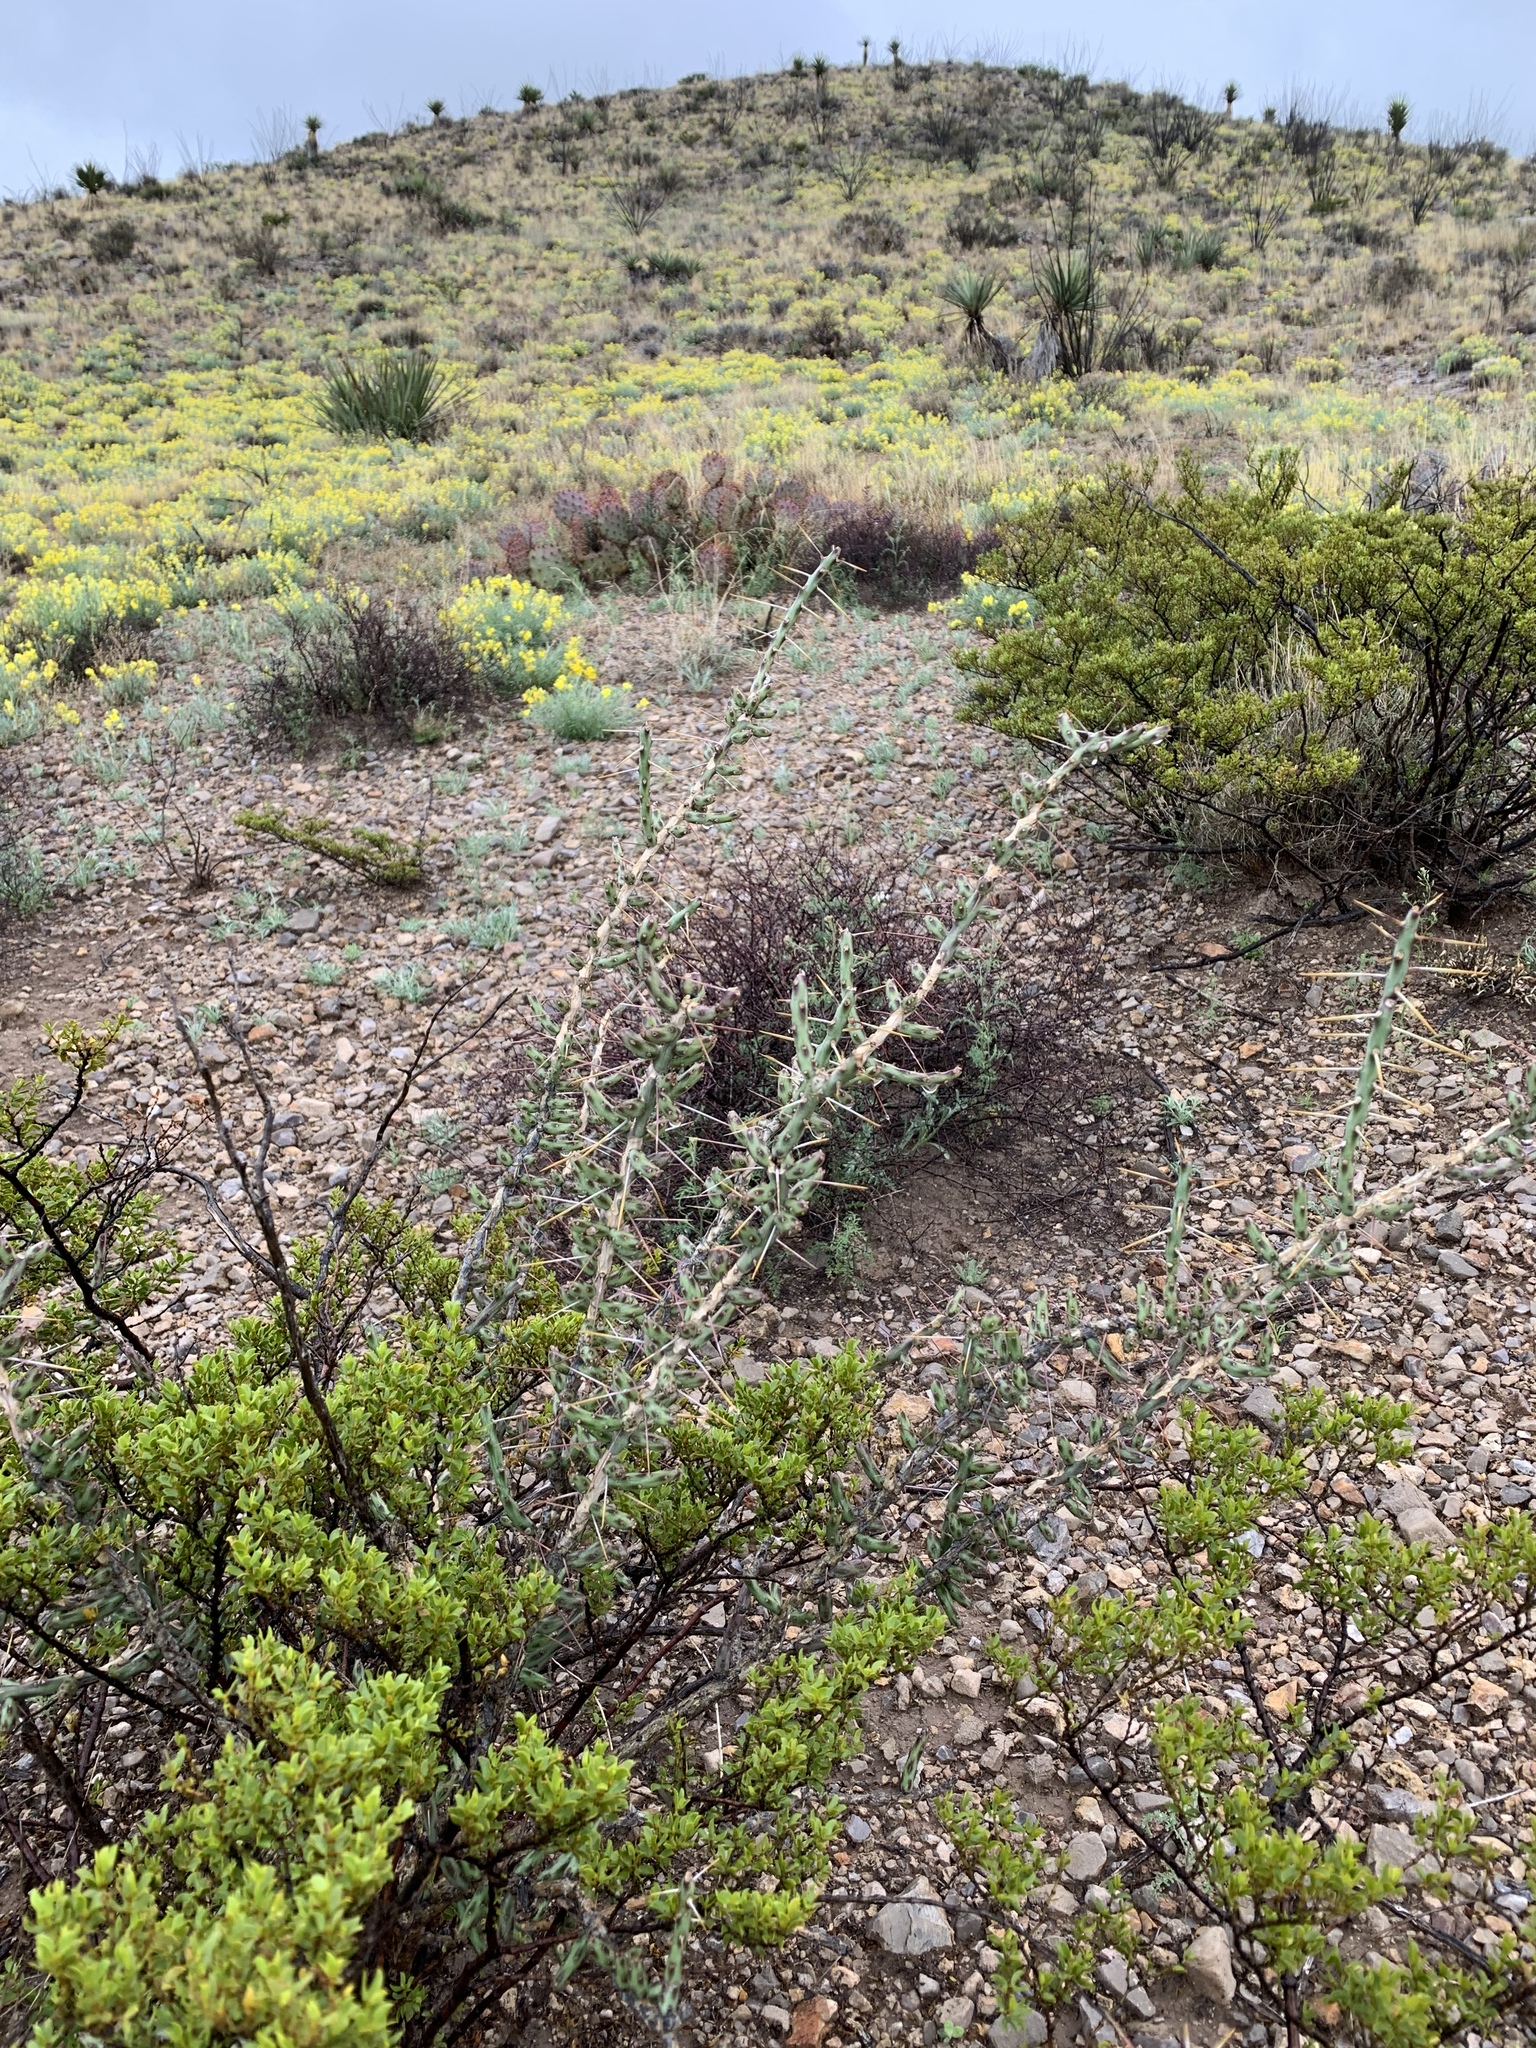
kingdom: Plantae
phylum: Tracheophyta
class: Magnoliopsida
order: Caryophyllales
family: Cactaceae
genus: Cylindropuntia
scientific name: Cylindropuntia leptocaulis
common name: Christmas cactus
